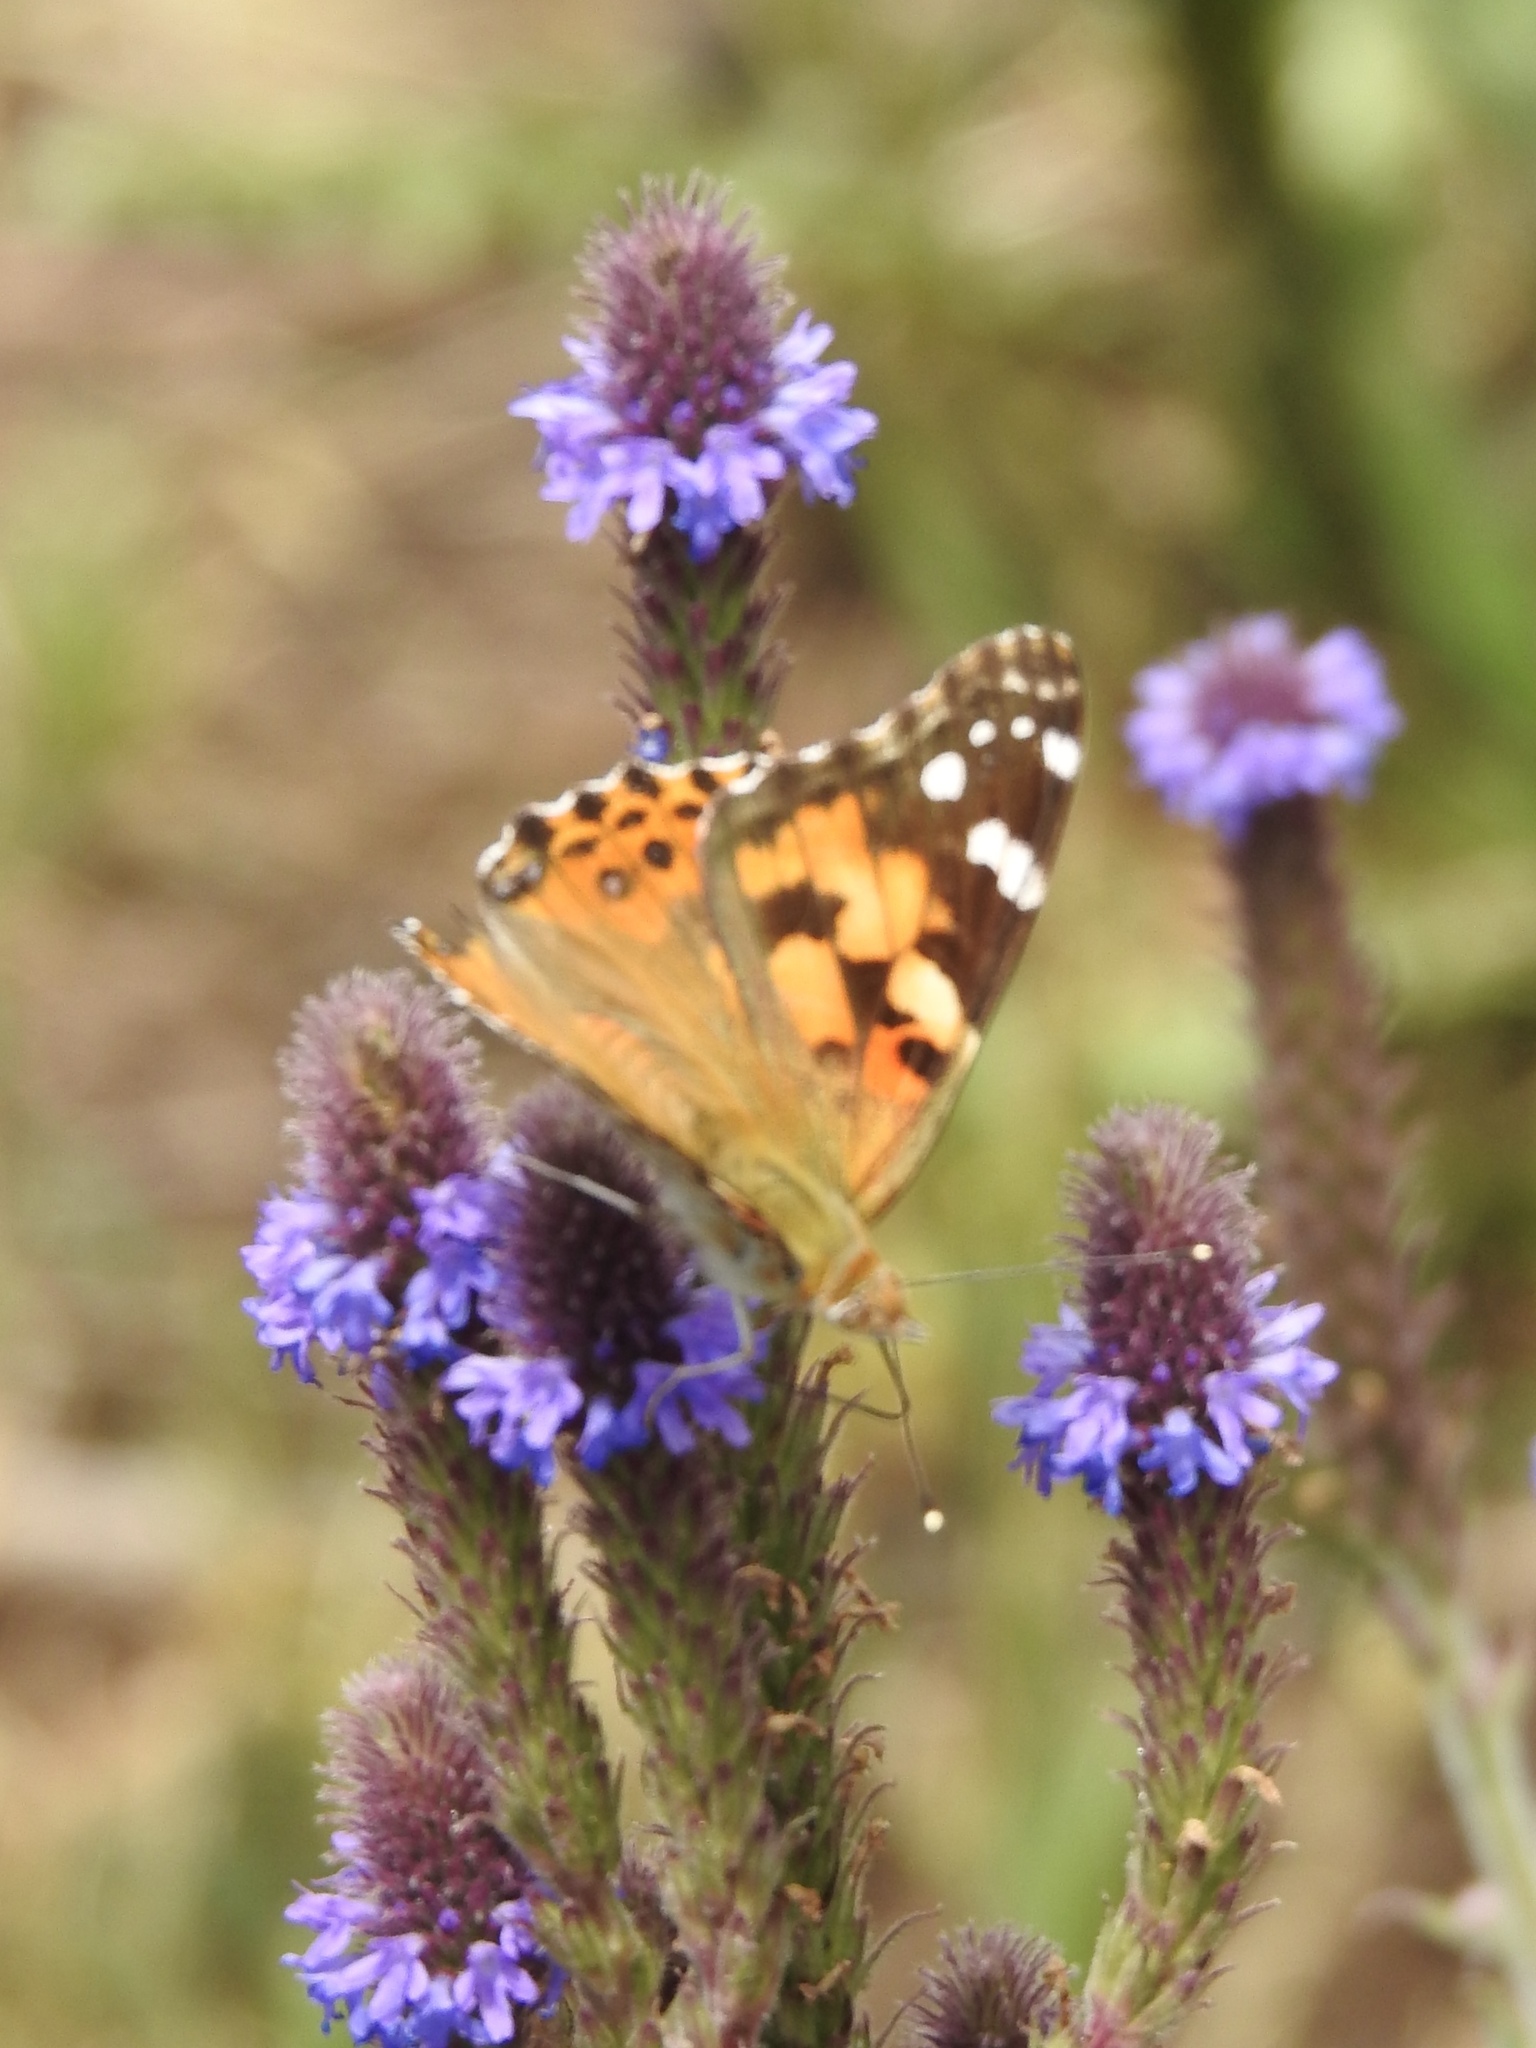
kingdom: Animalia
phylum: Arthropoda
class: Insecta
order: Lepidoptera
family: Nymphalidae
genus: Vanessa
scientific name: Vanessa cardui
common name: Painted lady
